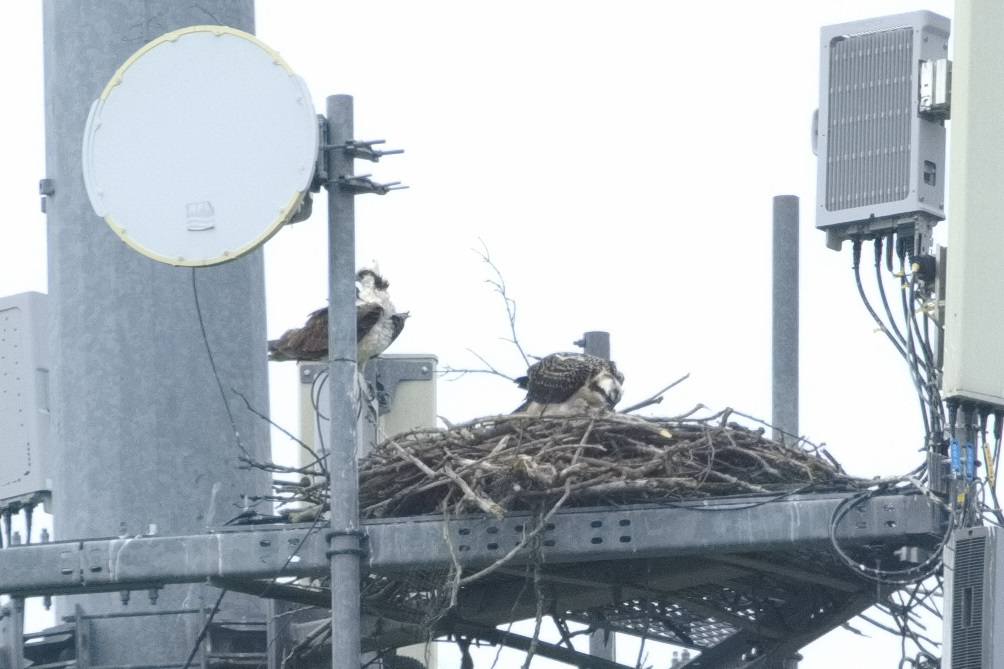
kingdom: Animalia
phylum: Chordata
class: Aves
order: Accipitriformes
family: Pandionidae
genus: Pandion
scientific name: Pandion haliaetus
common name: Osprey
